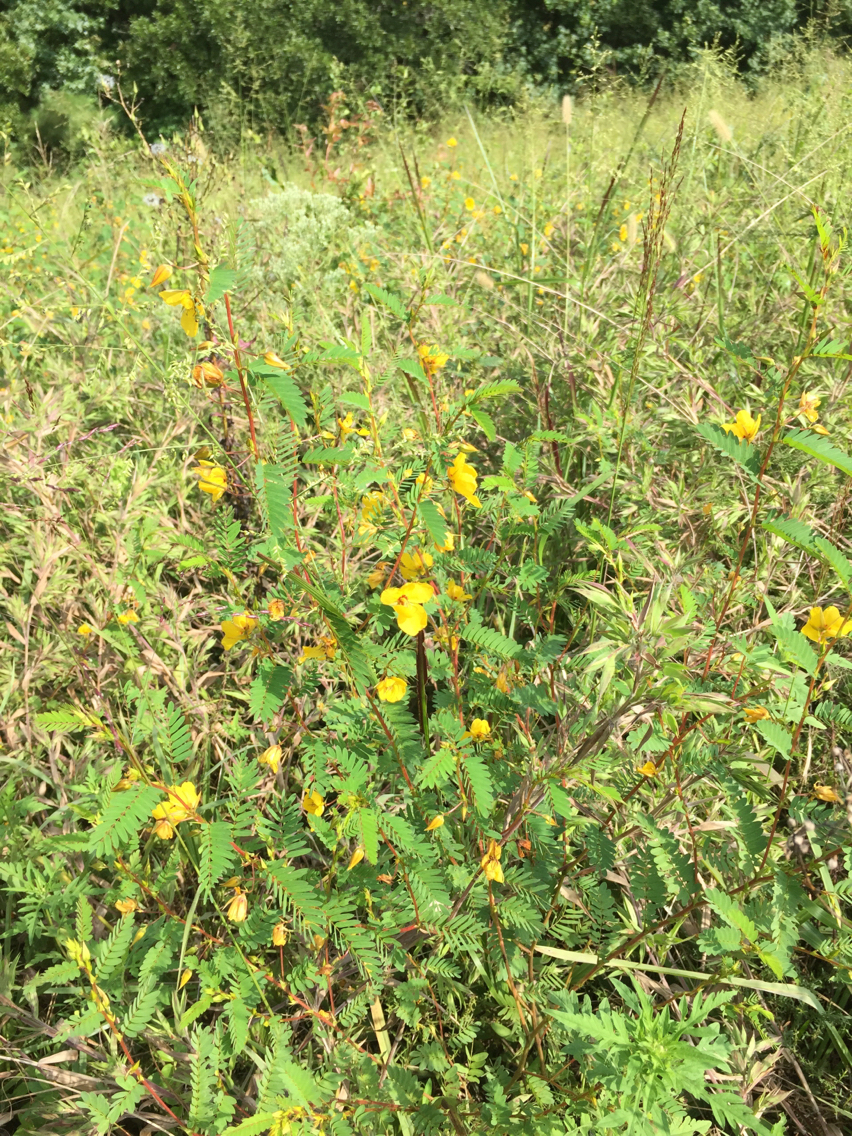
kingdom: Plantae
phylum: Tracheophyta
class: Magnoliopsida
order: Fabales
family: Fabaceae
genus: Chamaecrista
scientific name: Chamaecrista fasciculata
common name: Golden cassia
